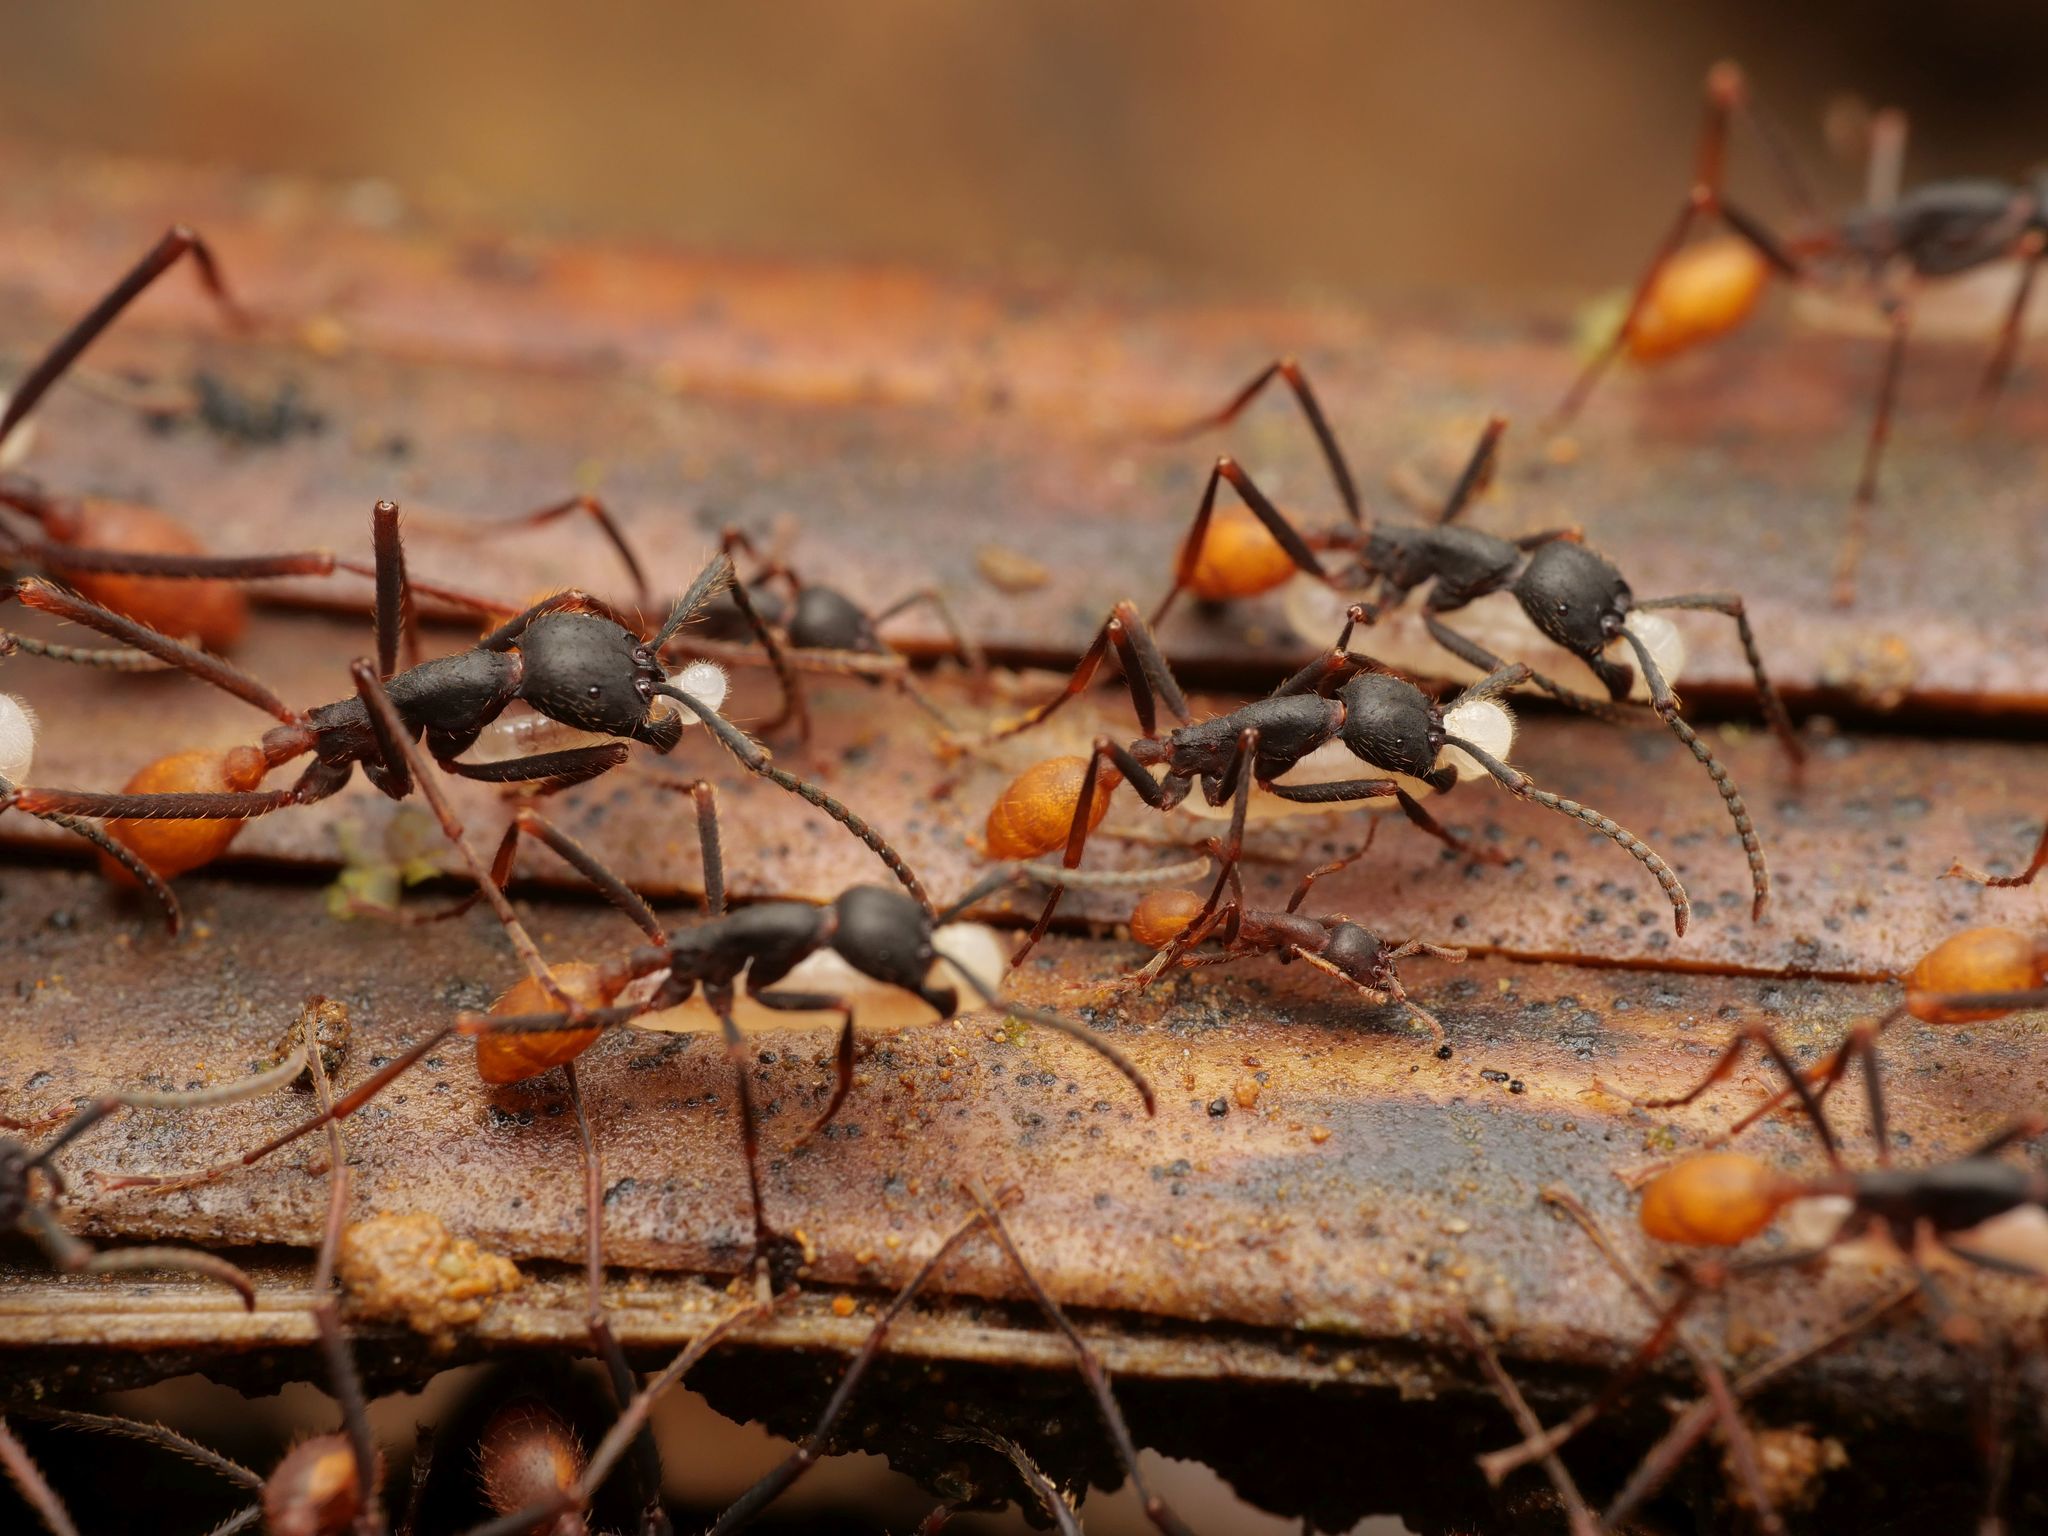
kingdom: Animalia
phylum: Arthropoda
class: Insecta
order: Hymenoptera
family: Formicidae
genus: Eciton
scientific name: Eciton burchellii
